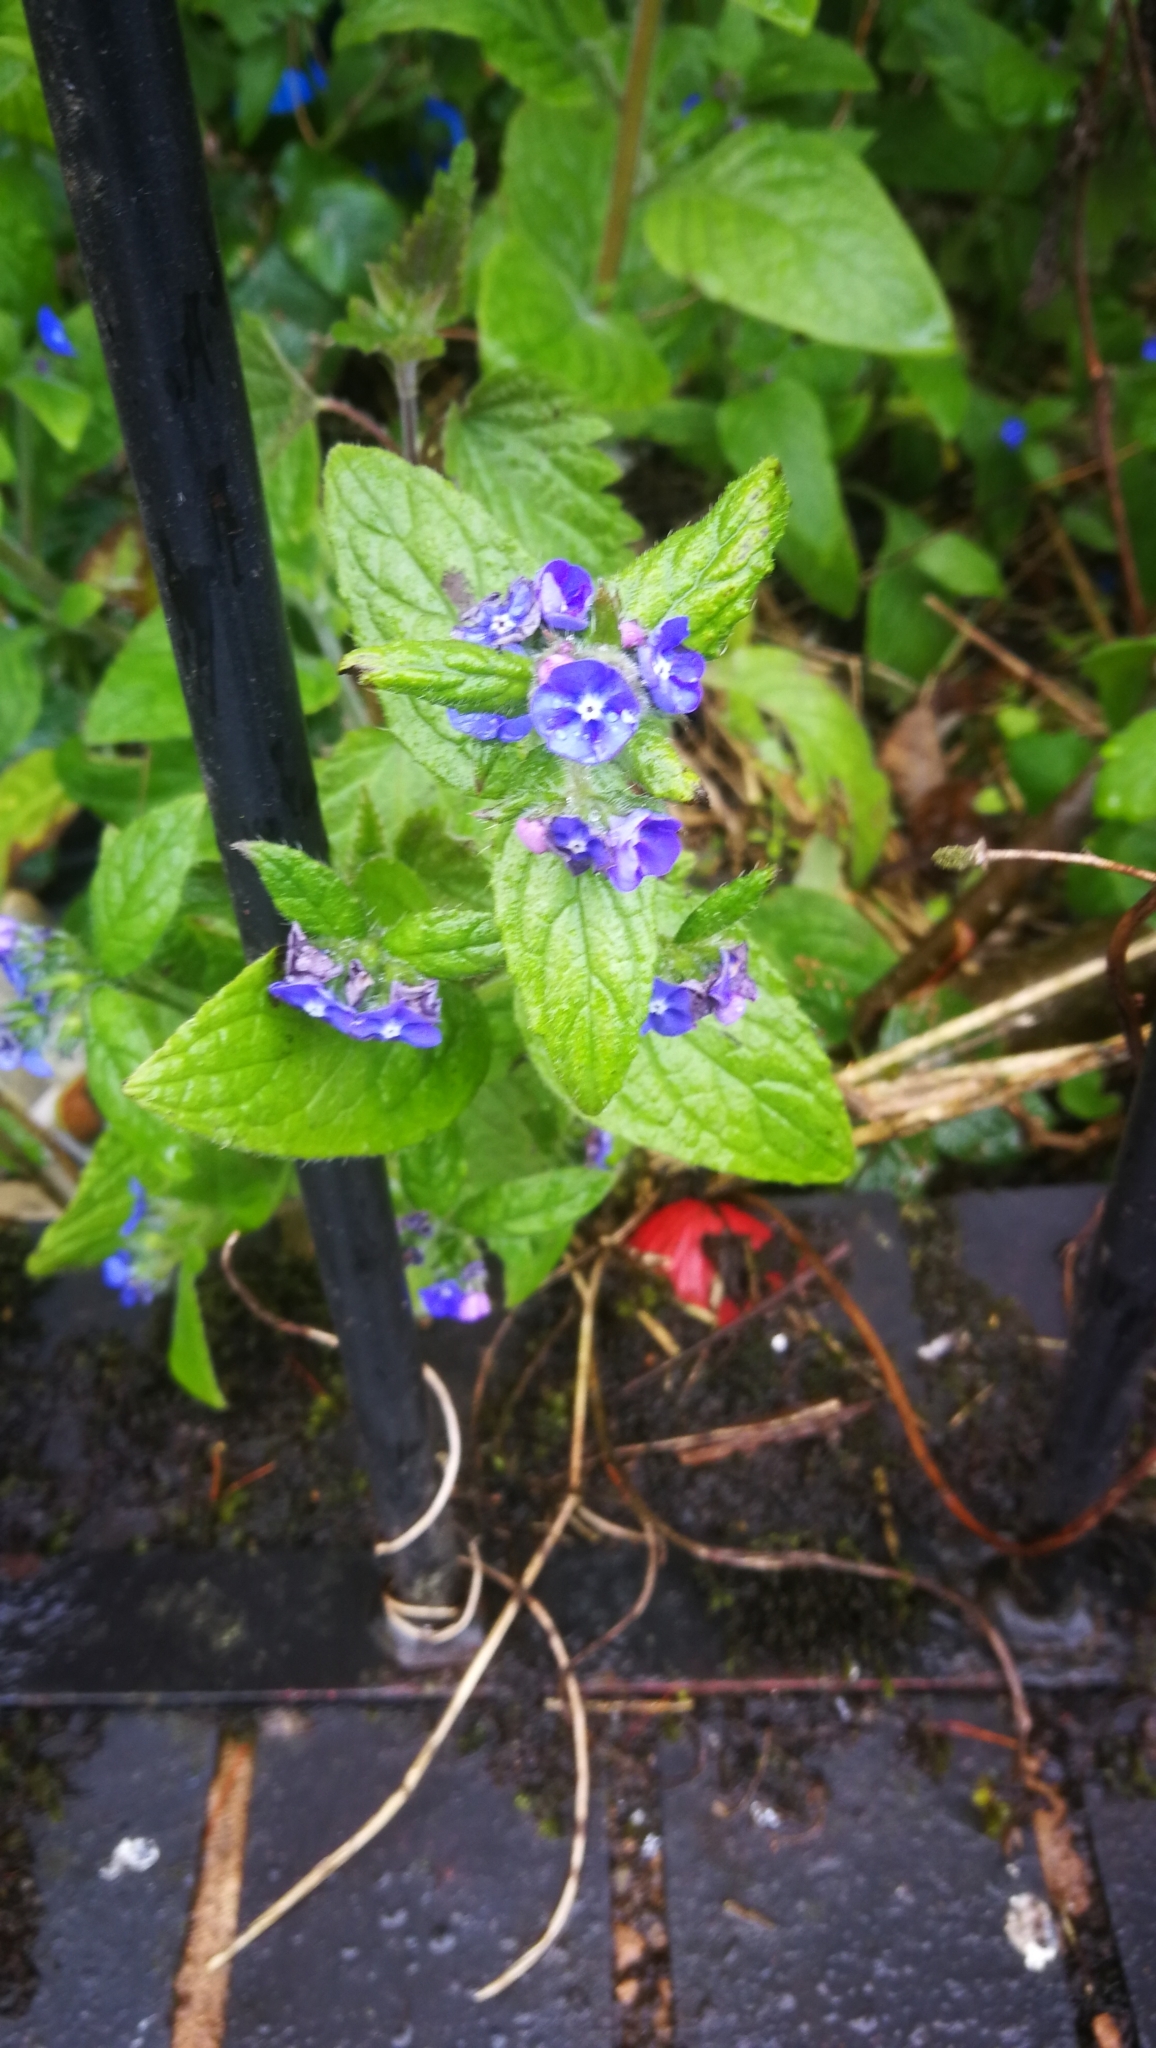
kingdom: Plantae
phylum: Tracheophyta
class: Magnoliopsida
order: Boraginales
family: Boraginaceae
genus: Pentaglottis
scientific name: Pentaglottis sempervirens
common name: Green alkanet
